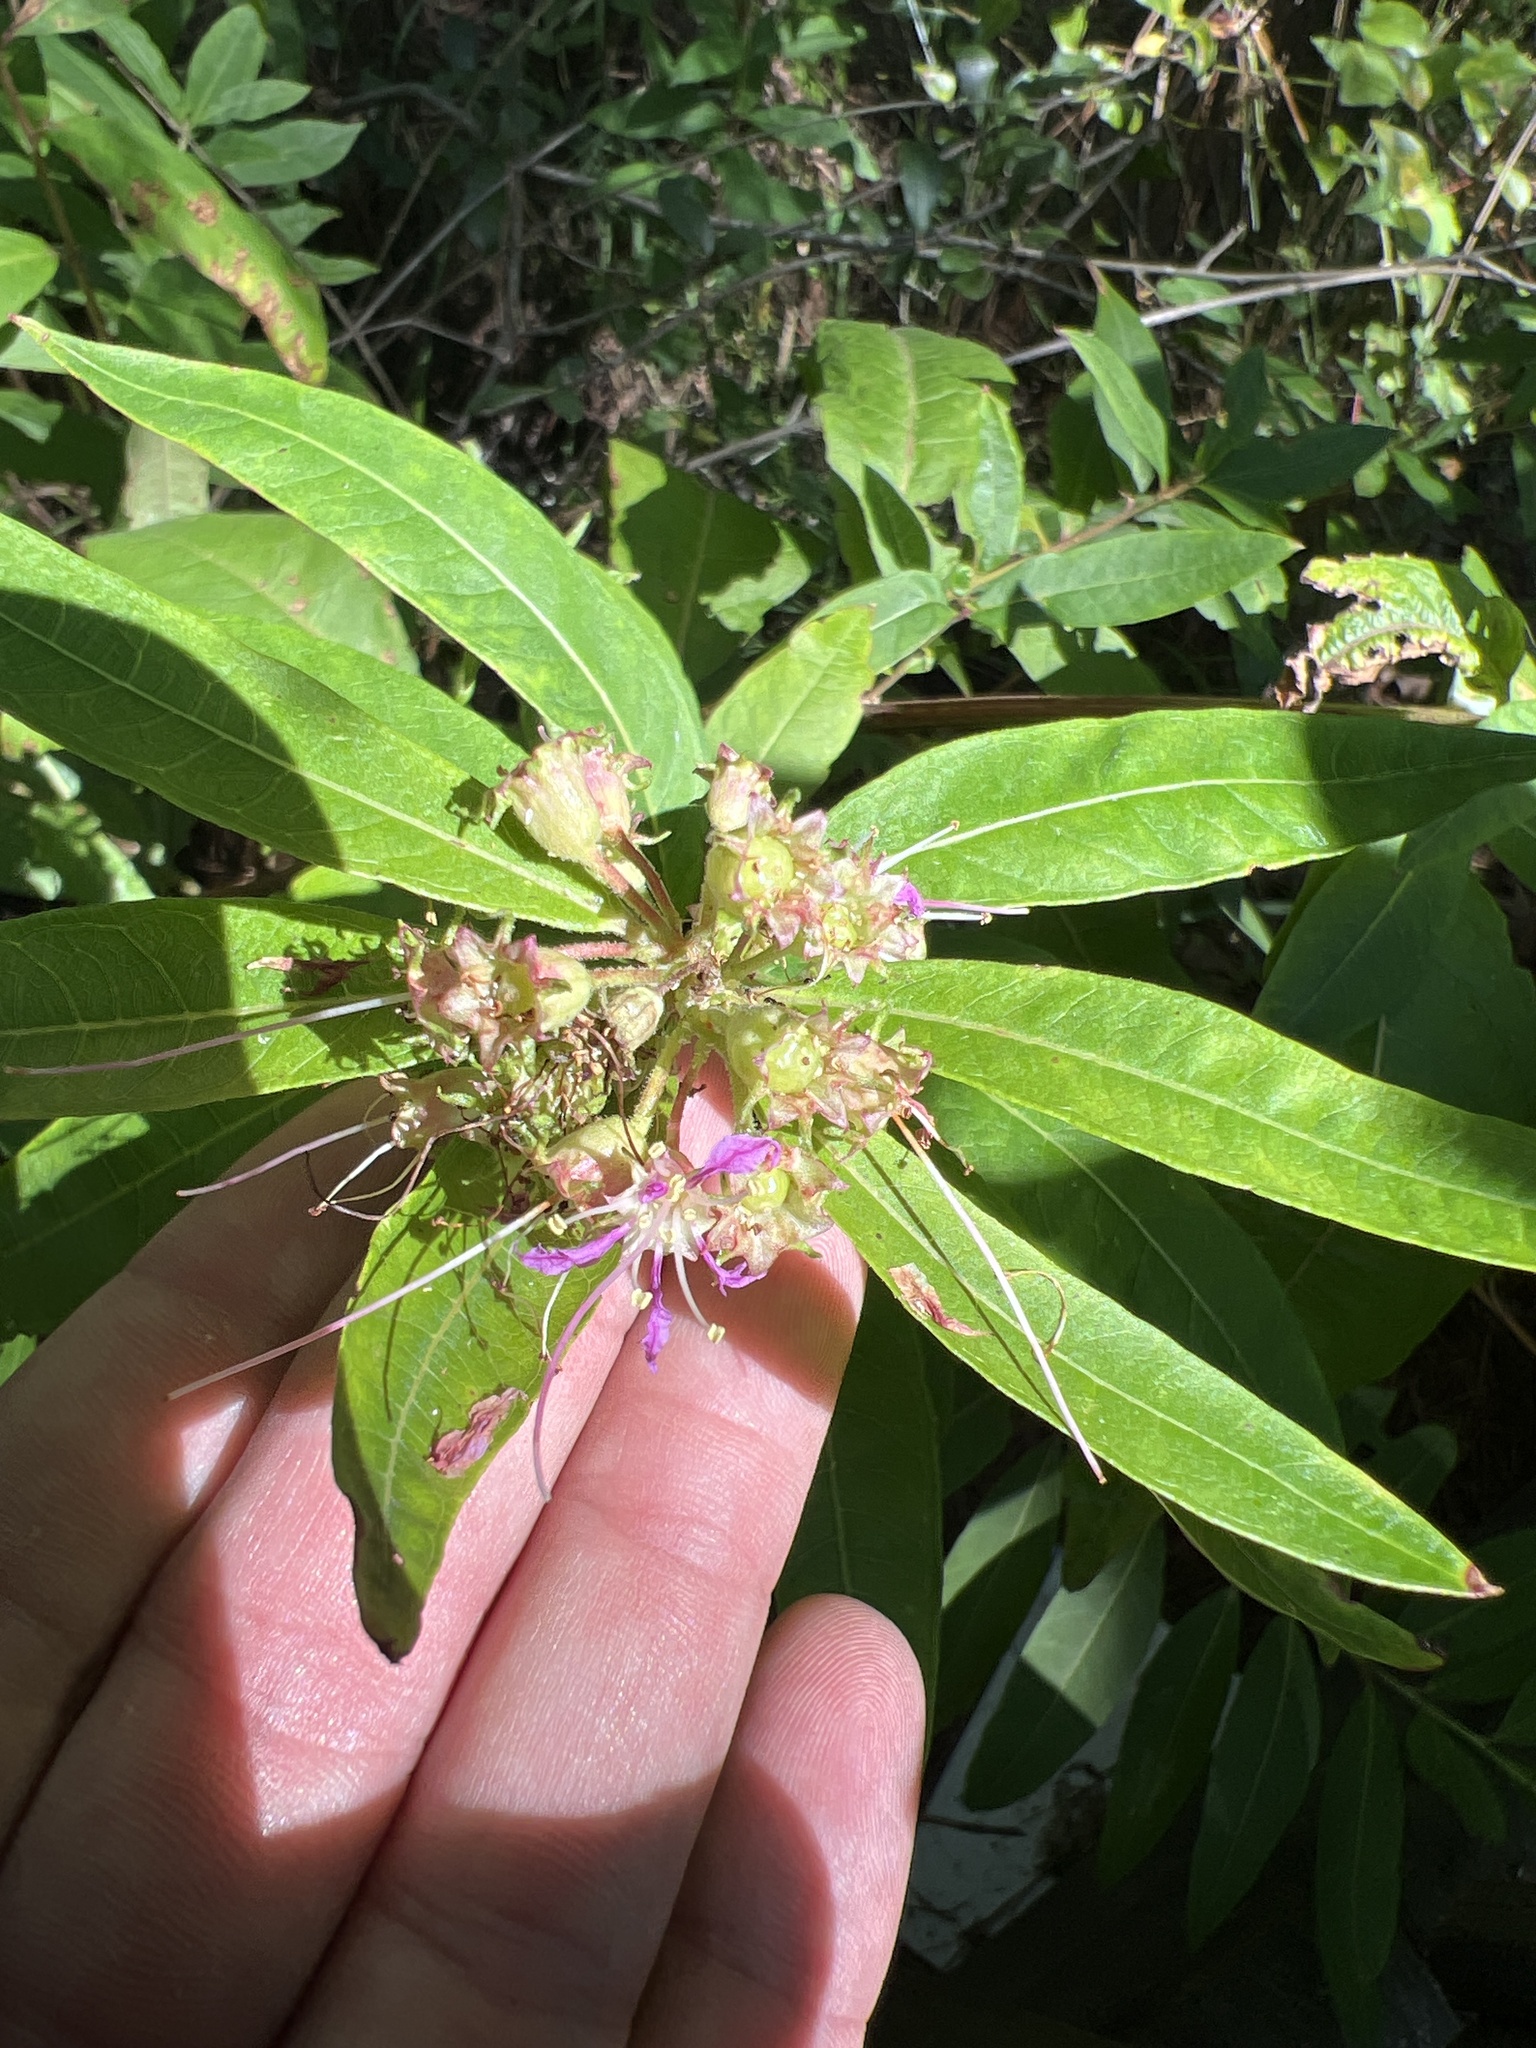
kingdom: Plantae
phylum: Tracheophyta
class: Magnoliopsida
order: Myrtales
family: Lythraceae
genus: Decodon
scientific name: Decodon verticillatus
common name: Hairy swamp loosestrife
